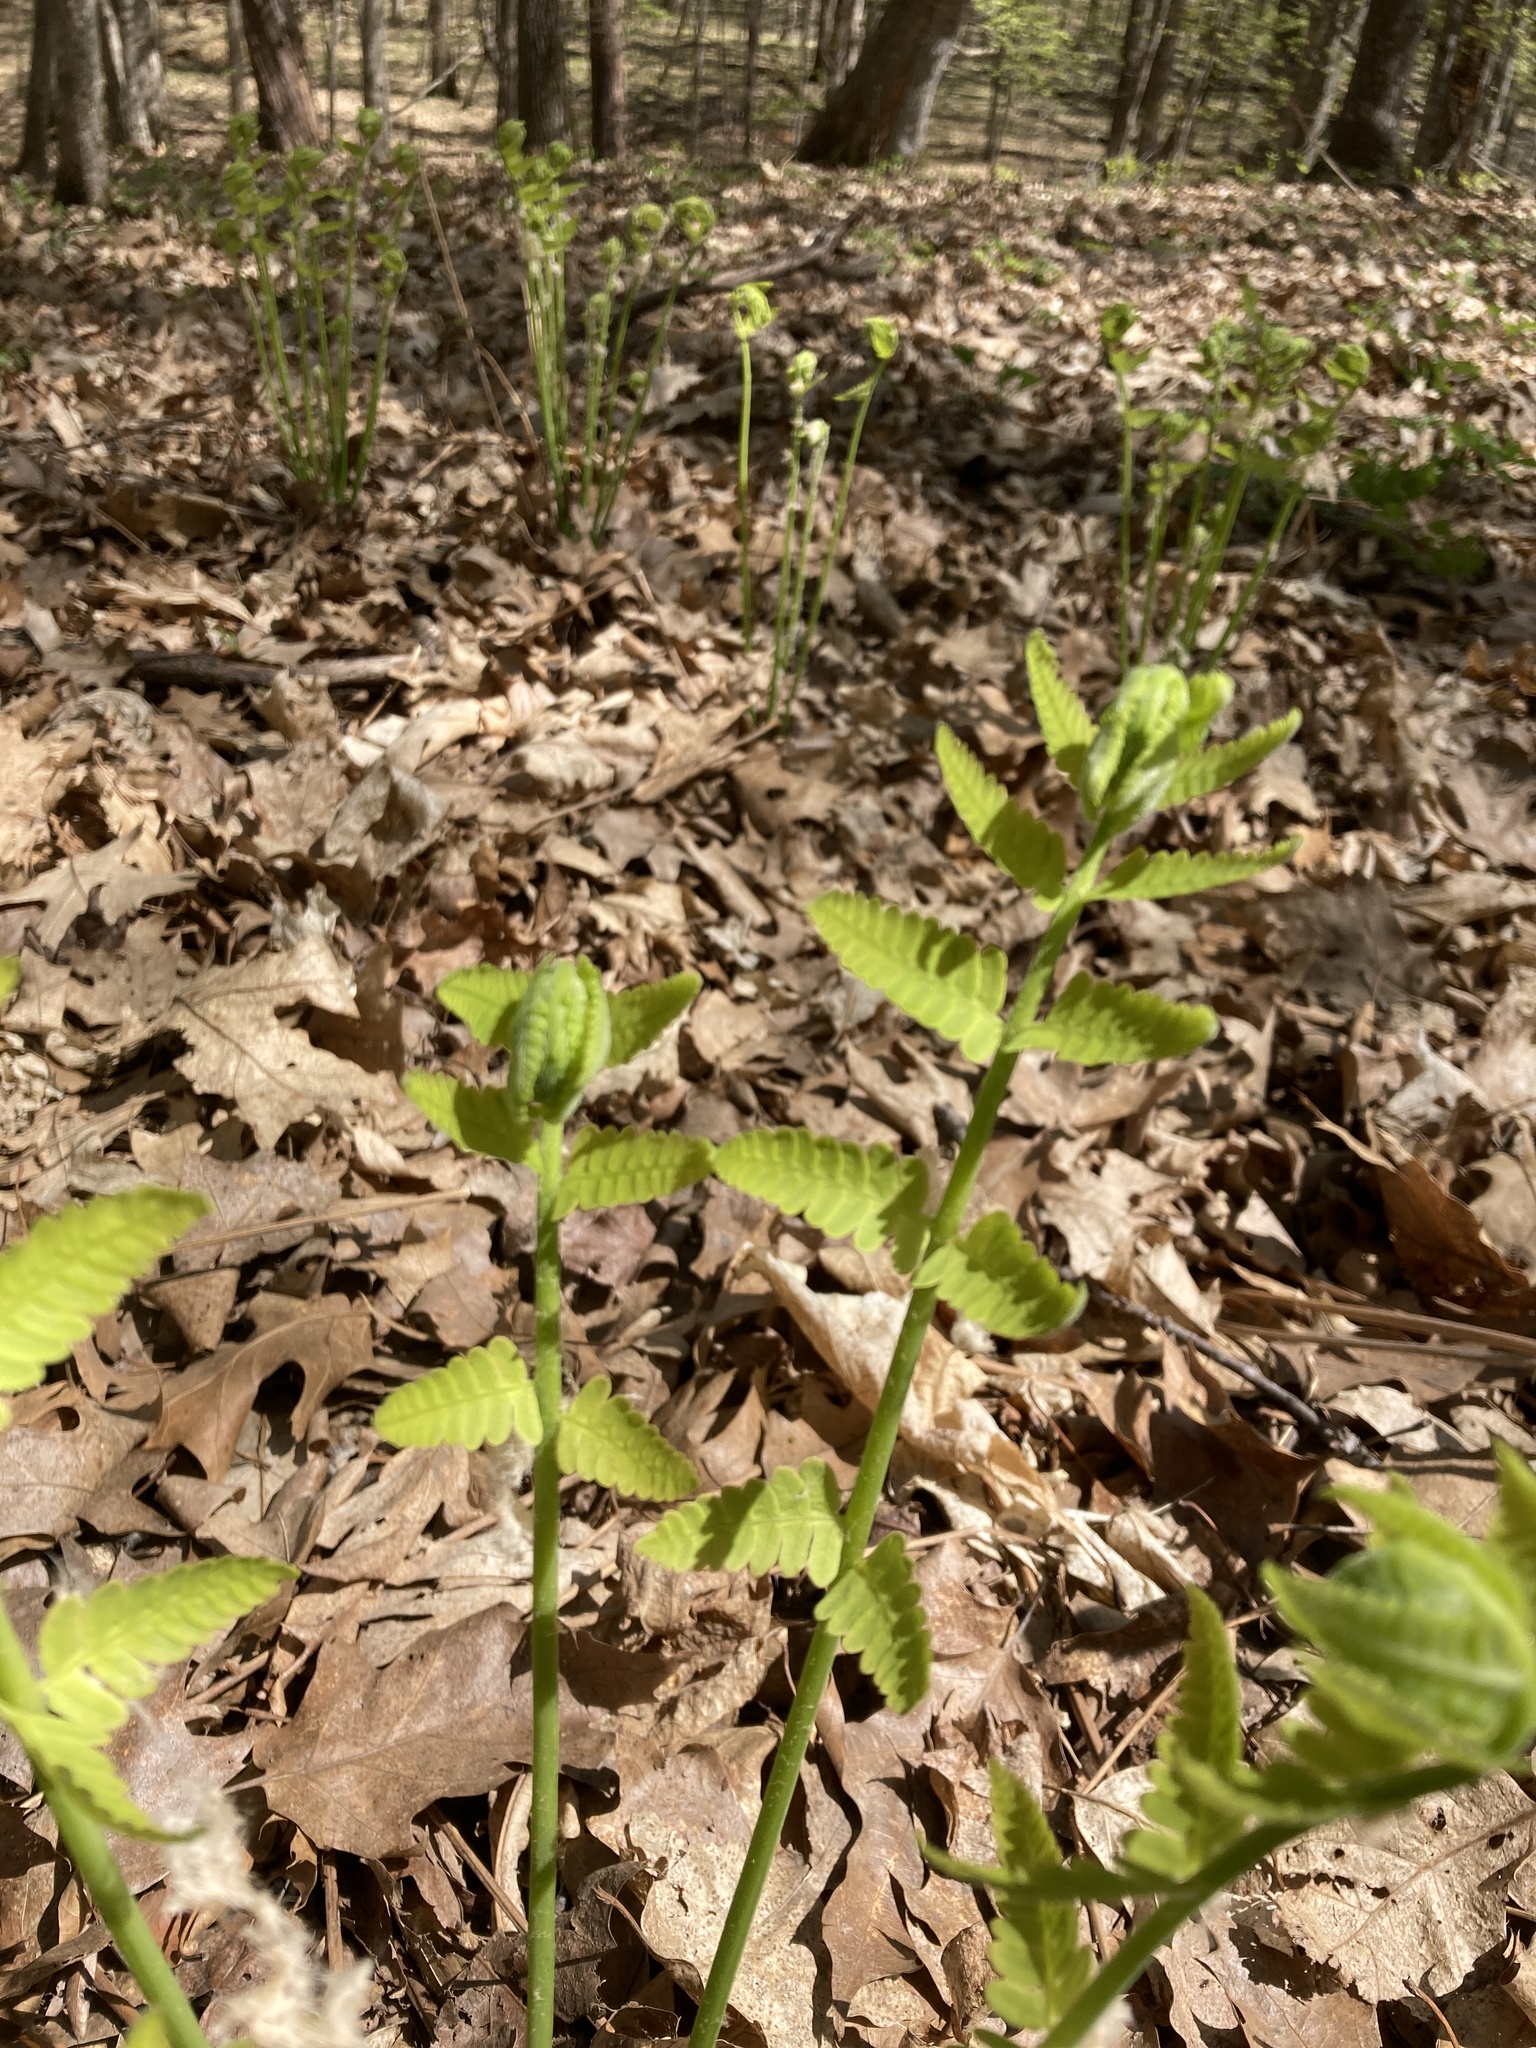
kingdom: Plantae
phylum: Tracheophyta
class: Polypodiopsida
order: Osmundales
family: Osmundaceae
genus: Claytosmunda
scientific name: Claytosmunda claytoniana
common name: Clayton's fern
